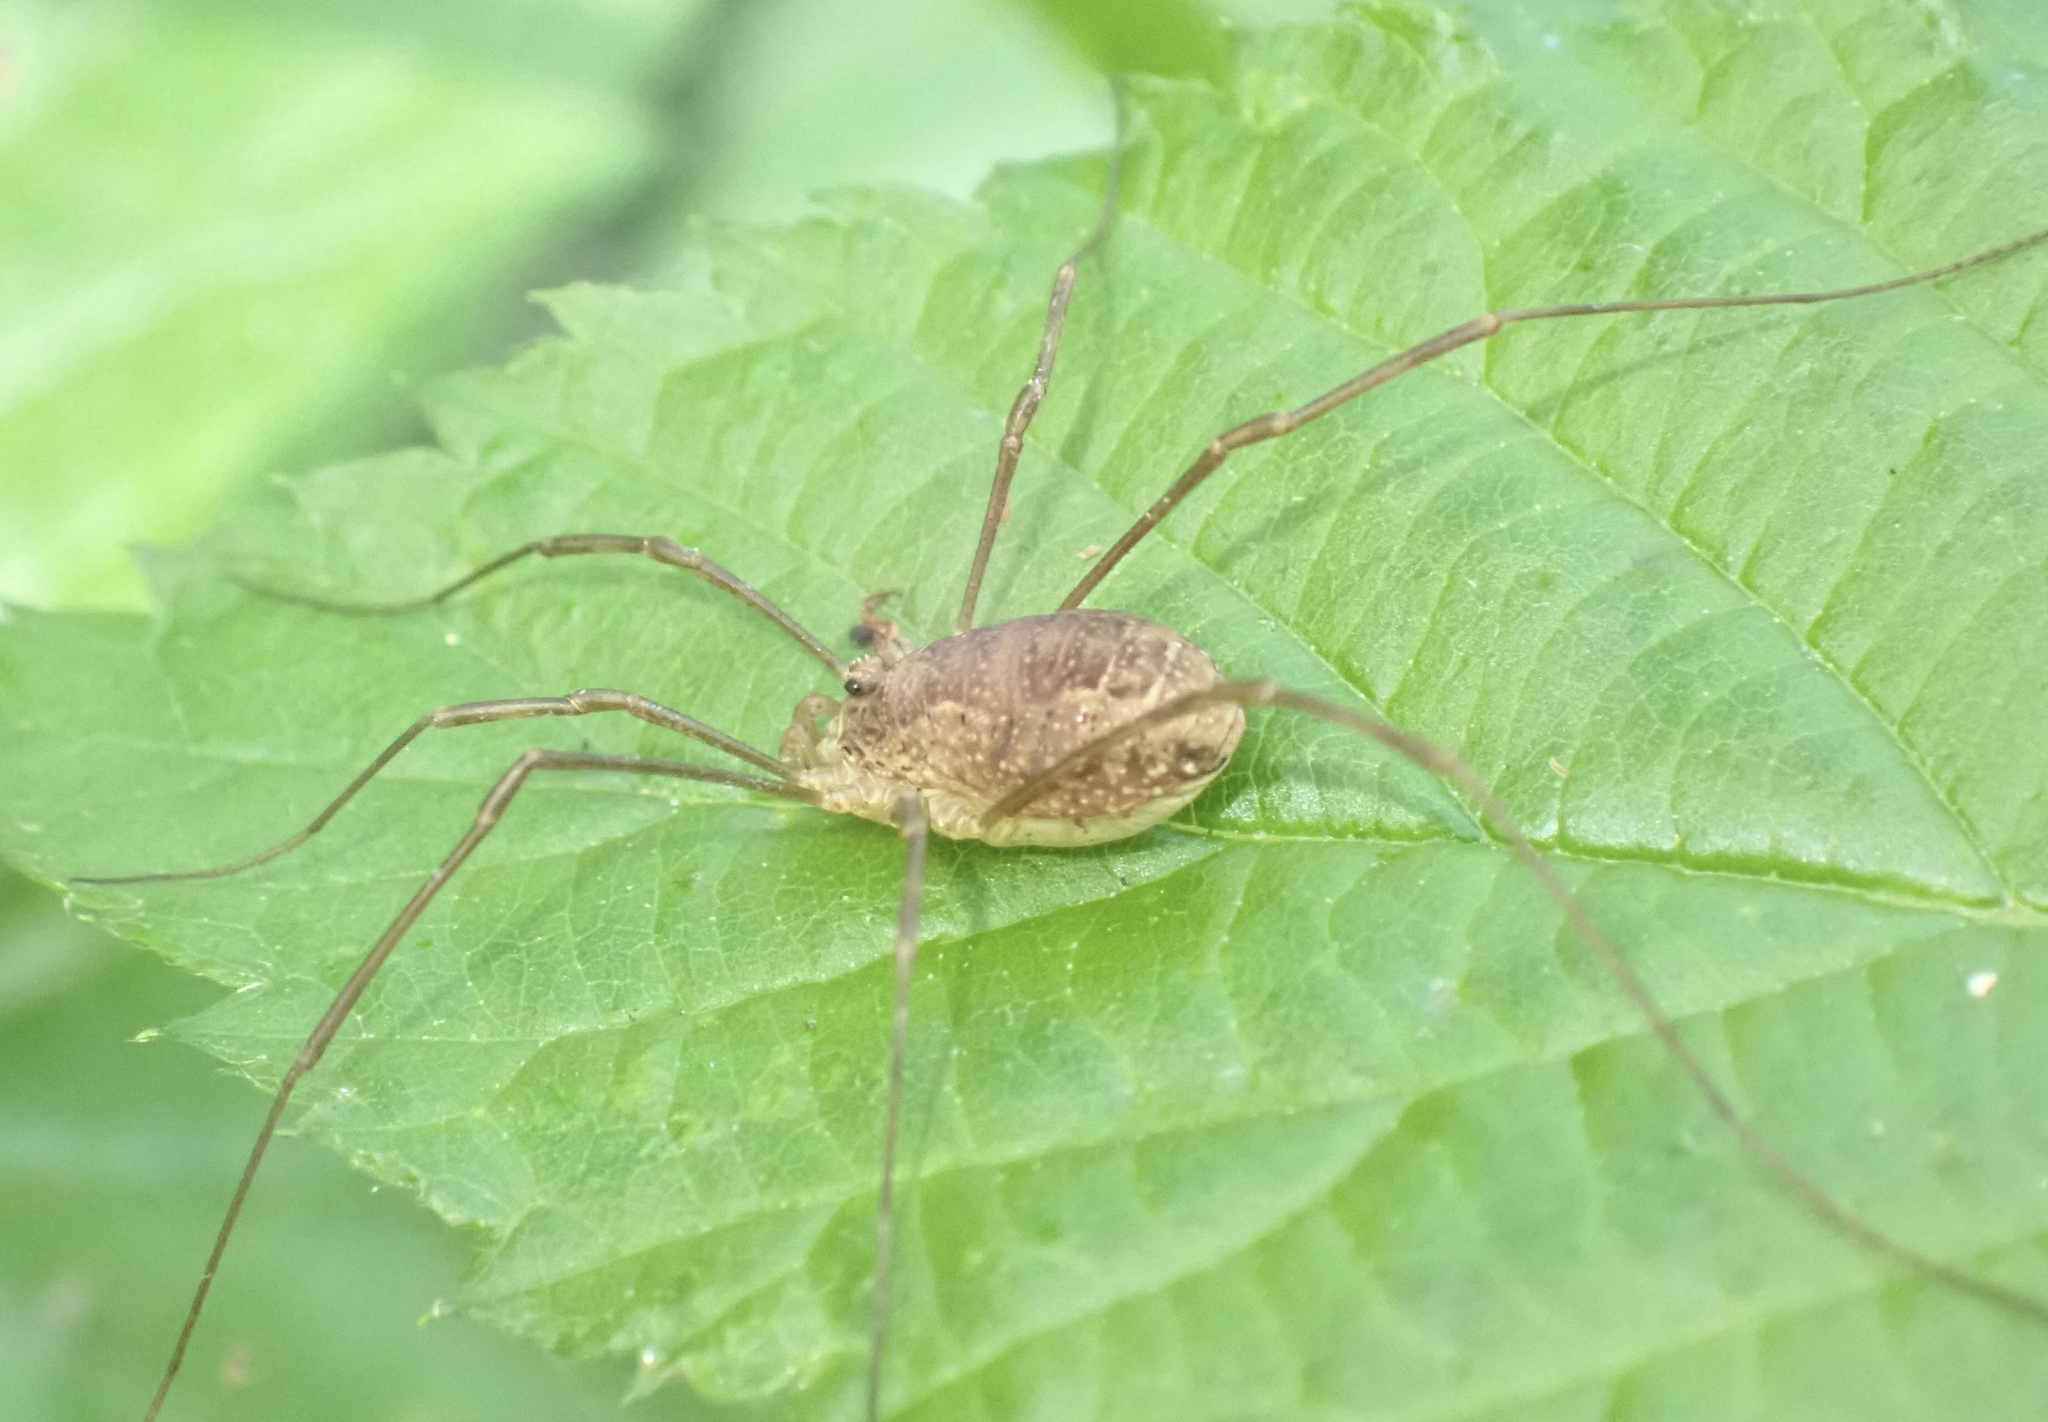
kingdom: Animalia
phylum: Arthropoda
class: Arachnida
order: Opiliones
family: Phalangiidae
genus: Rilaena
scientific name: Rilaena triangularis
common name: Spring harvestman
